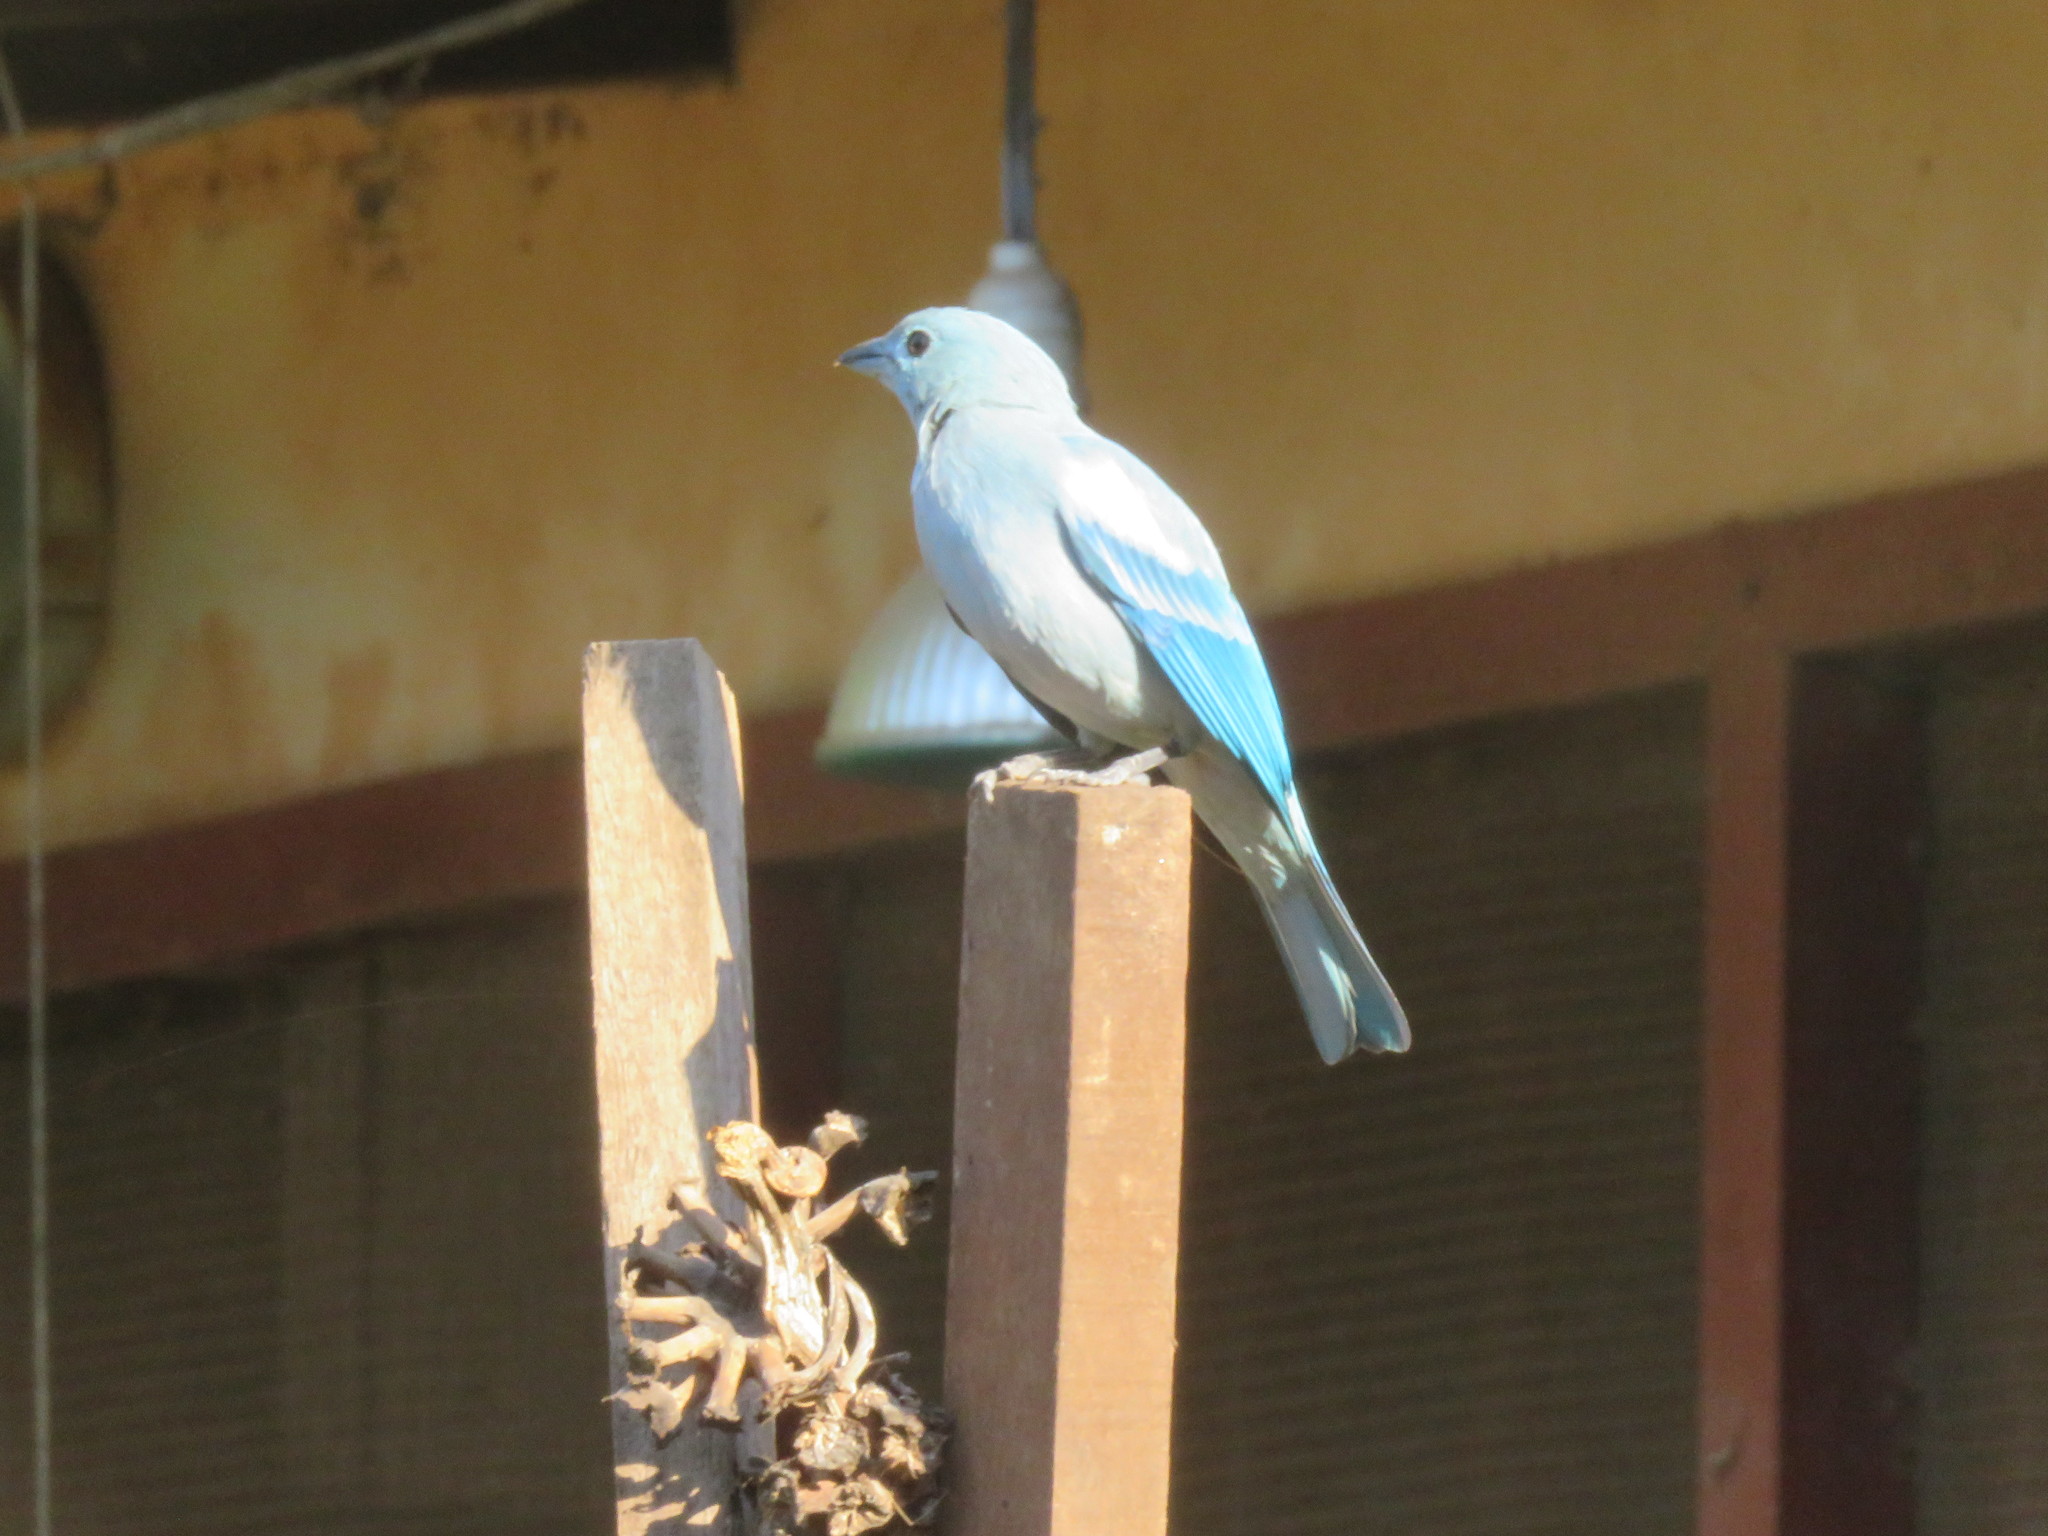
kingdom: Animalia
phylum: Chordata
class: Aves
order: Passeriformes
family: Thraupidae
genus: Thraupis
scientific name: Thraupis episcopus
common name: Blue-grey tanager
